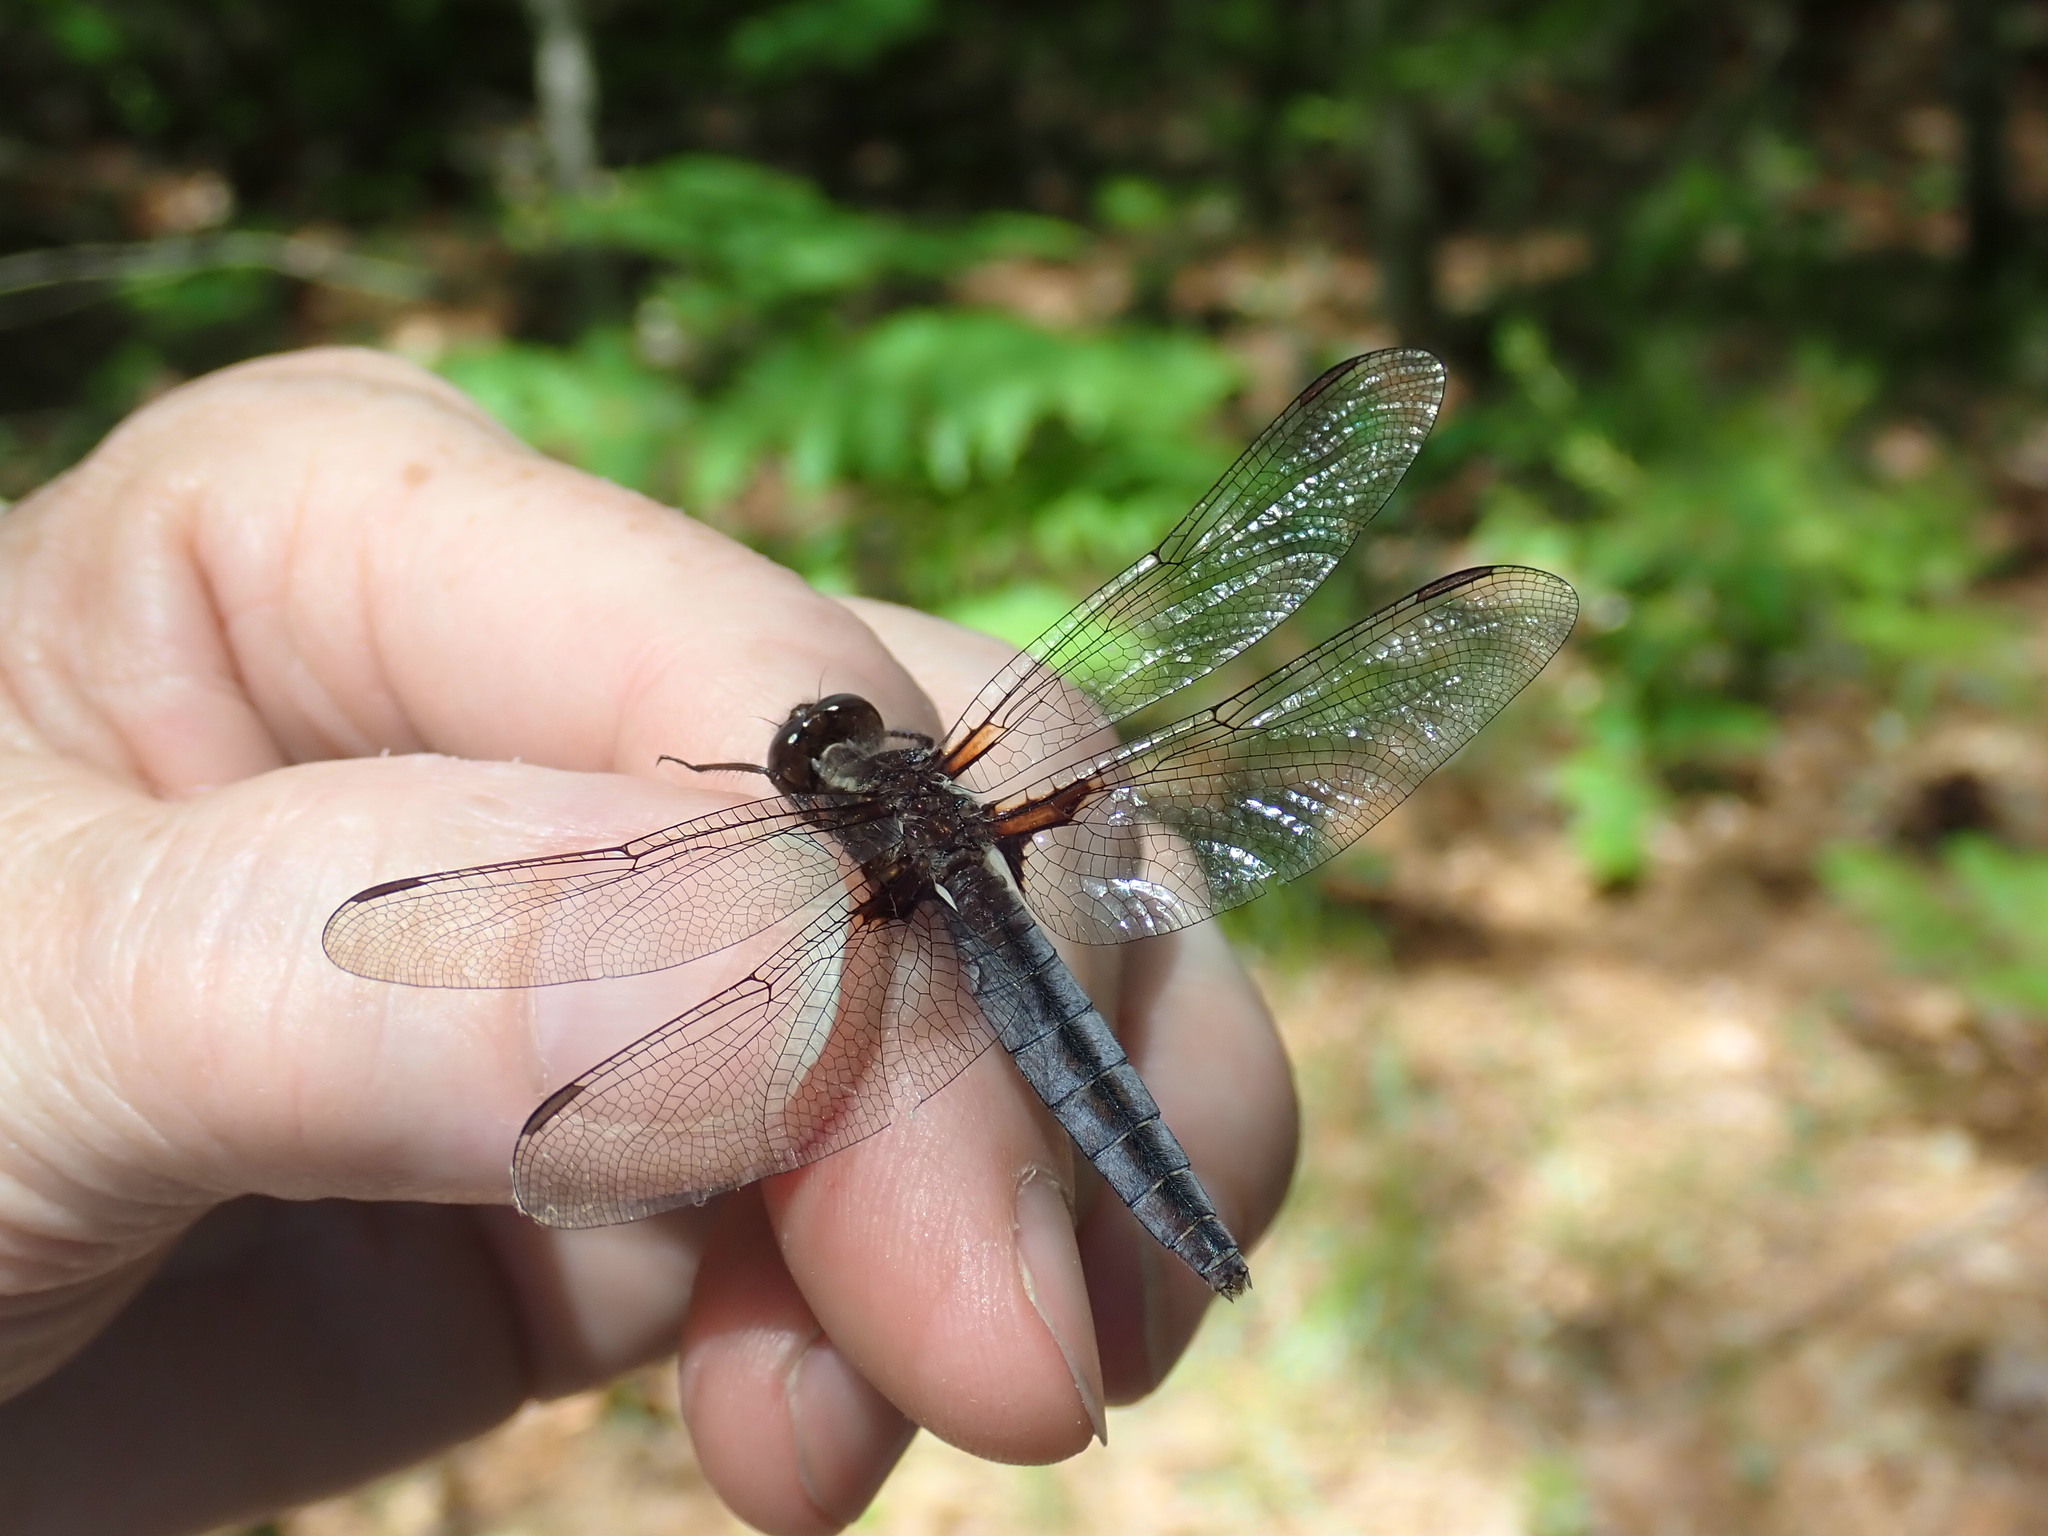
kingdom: Animalia
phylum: Arthropoda
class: Insecta
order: Odonata
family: Libellulidae
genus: Ladona
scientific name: Ladona deplanata
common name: Blue corporal
